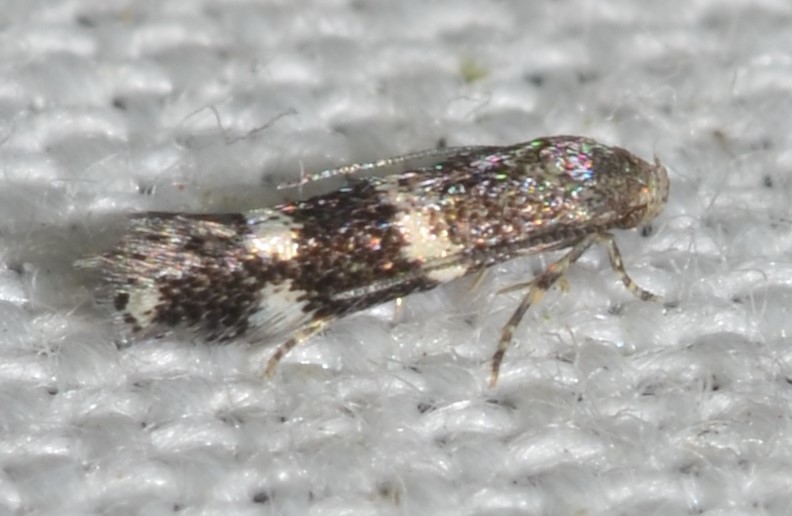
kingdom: Animalia
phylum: Arthropoda
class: Insecta
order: Lepidoptera
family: Elachistidae
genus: Elachista
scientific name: Elachista illectella
